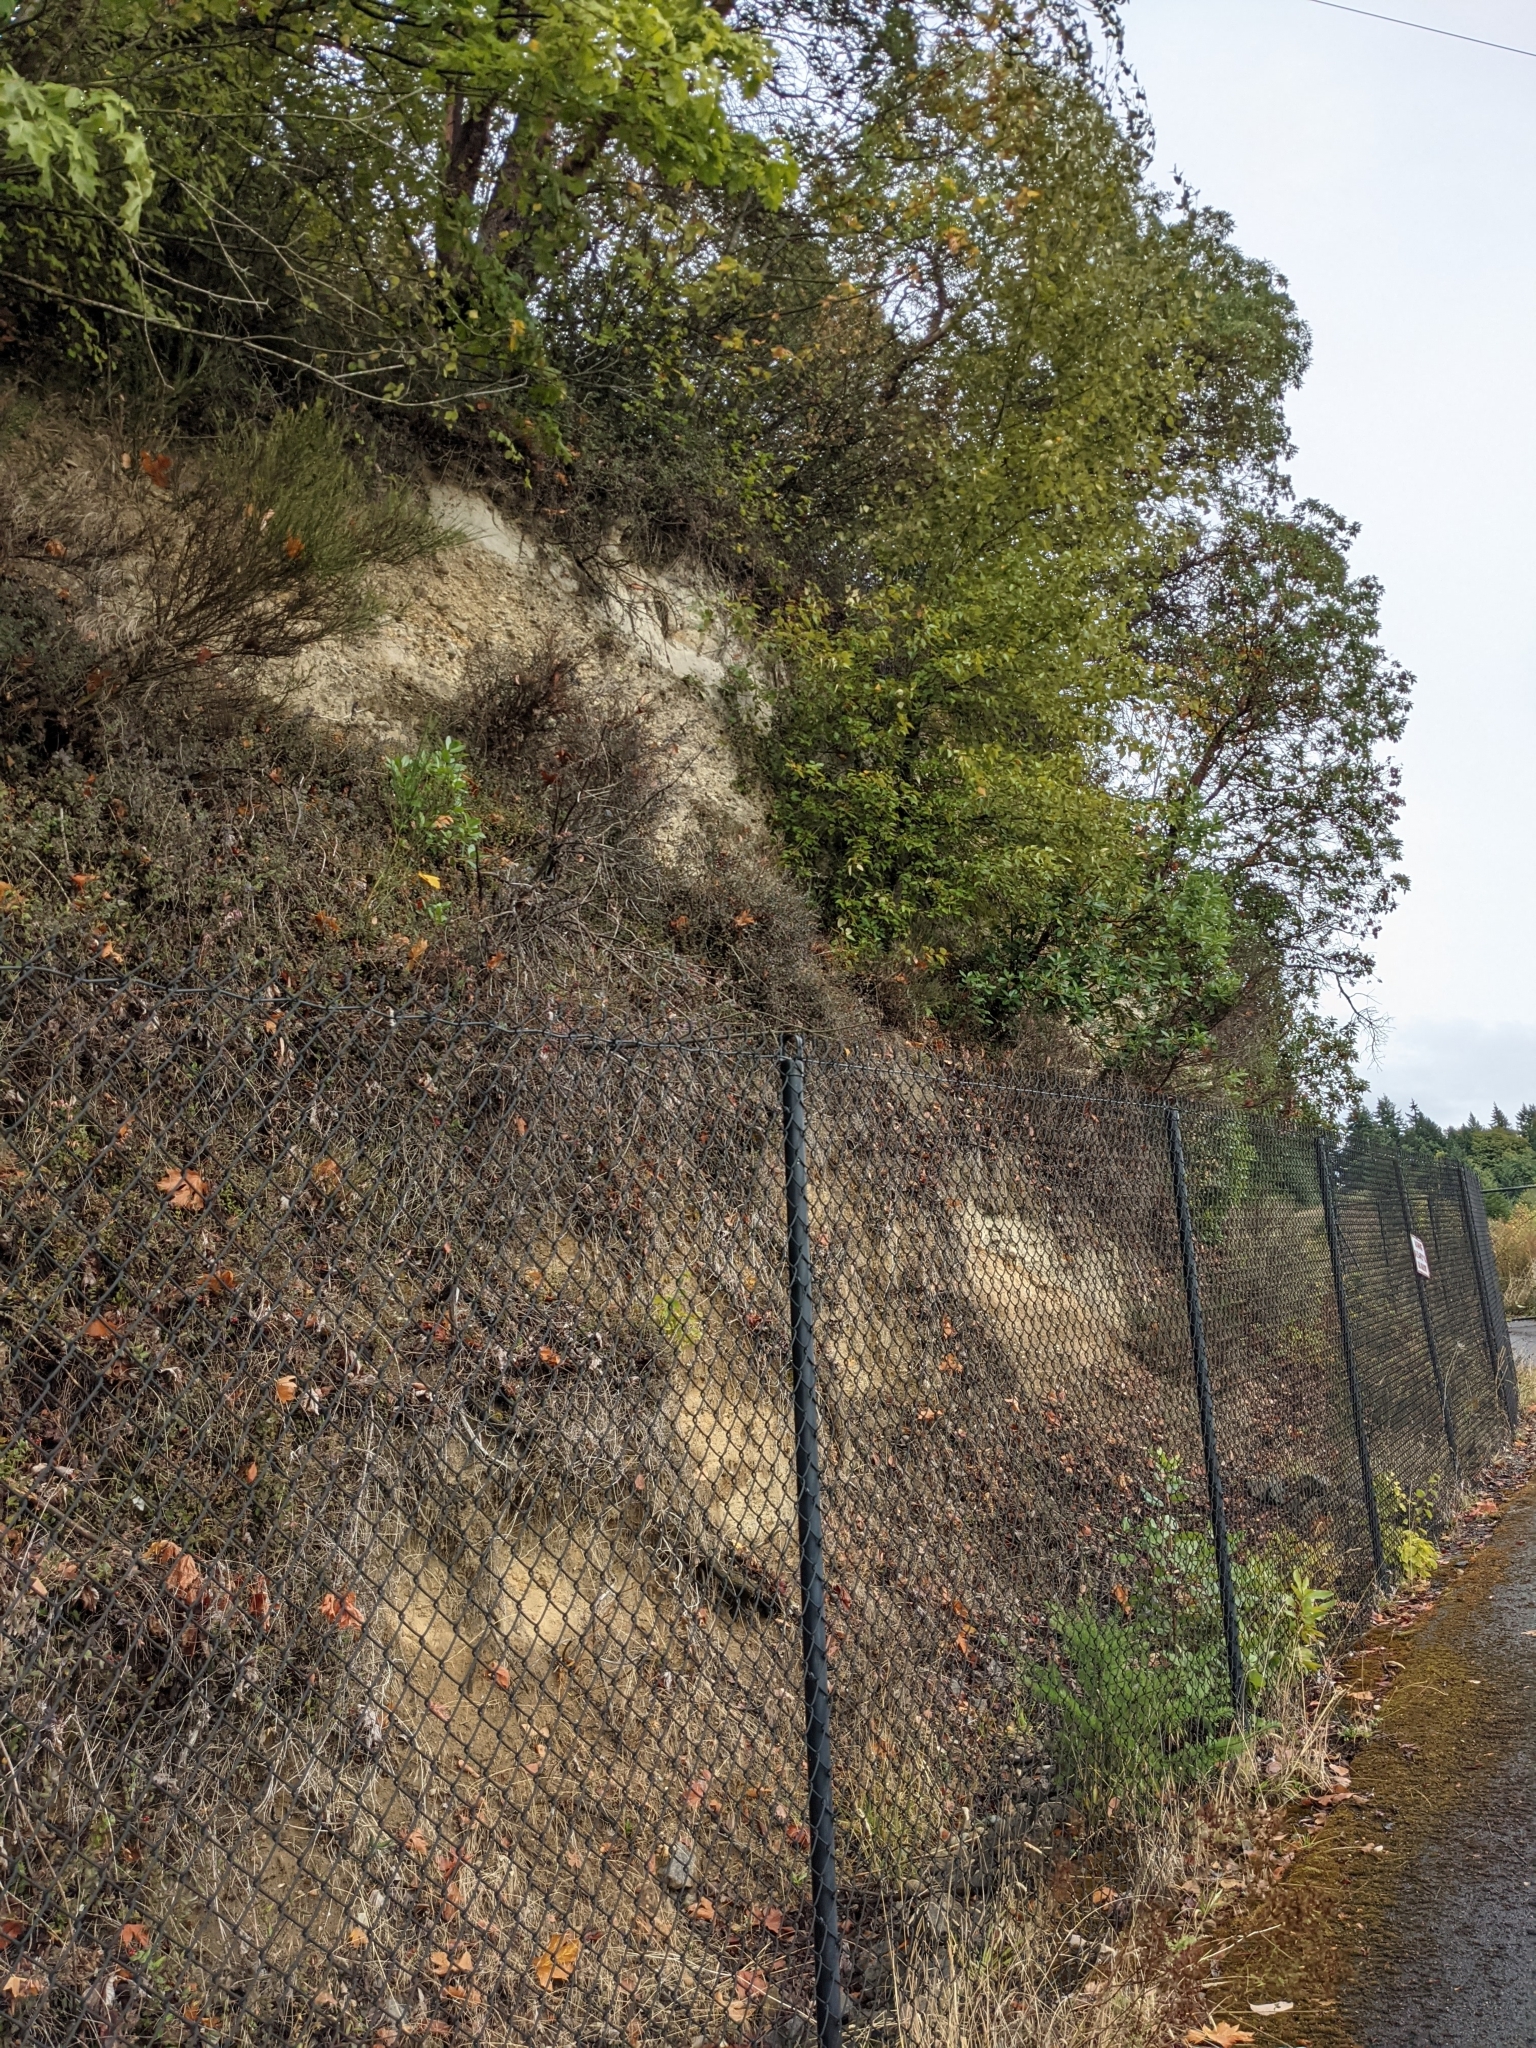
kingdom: Plantae
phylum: Tracheophyta
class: Magnoliopsida
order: Lamiales
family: Lamiaceae
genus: Micromeria
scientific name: Micromeria douglasii
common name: Yerba buena
